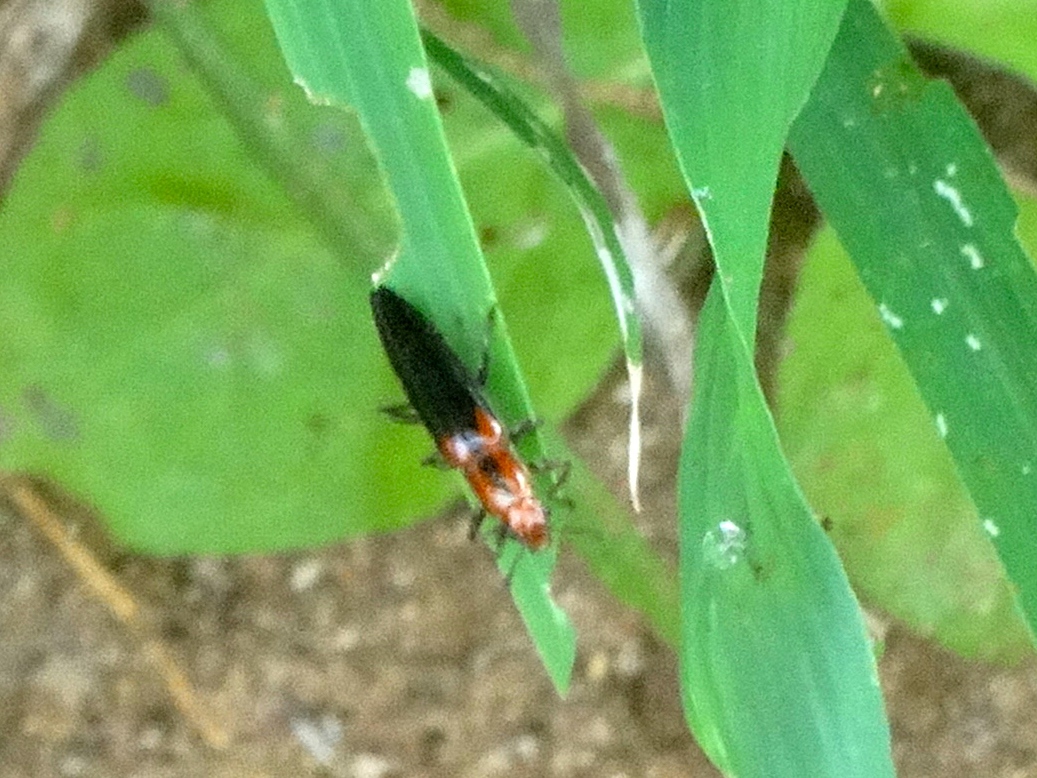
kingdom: Animalia
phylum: Arthropoda
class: Insecta
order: Coleoptera
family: Erotylidae
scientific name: Erotylidae
